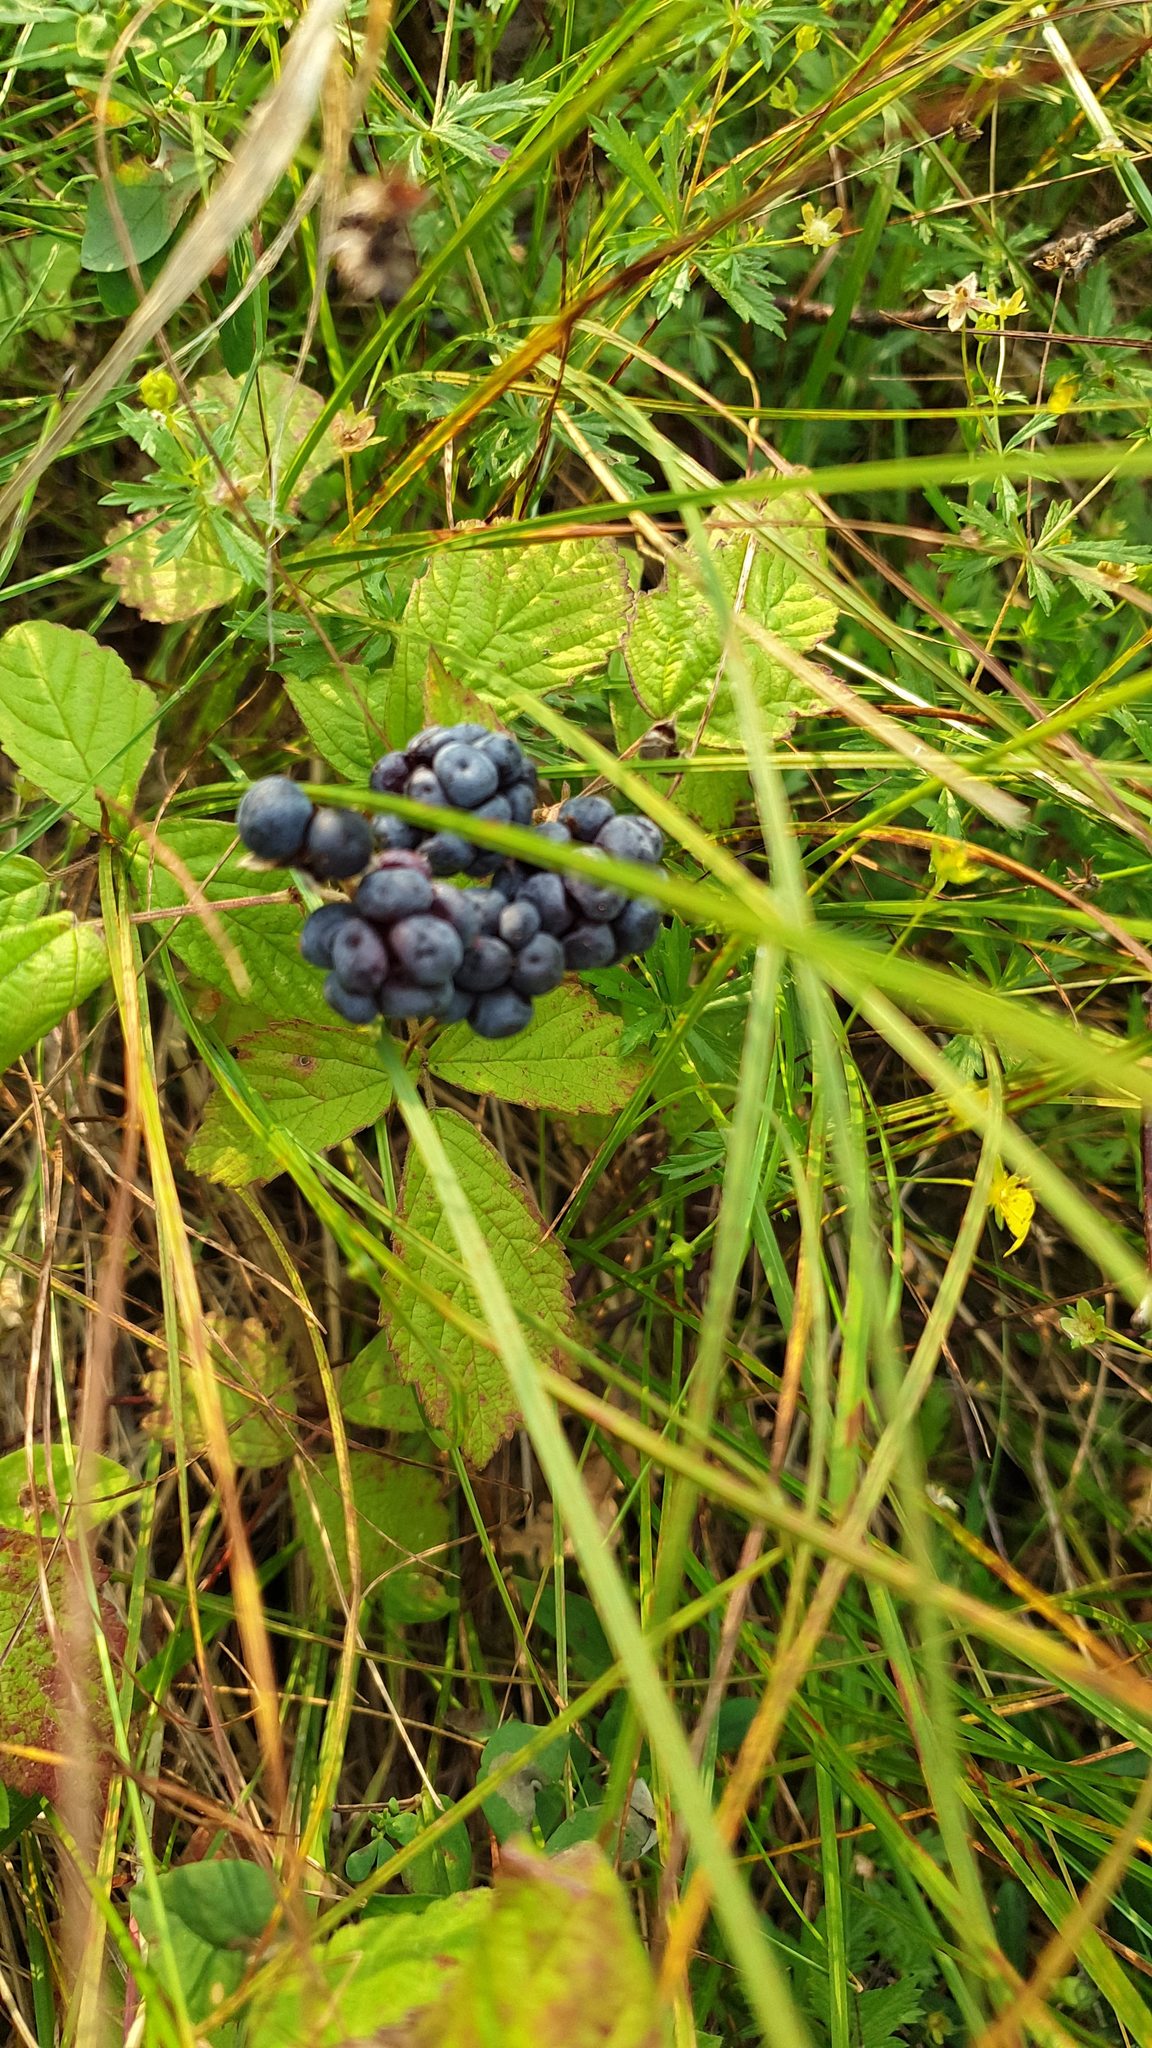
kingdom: Plantae
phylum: Tracheophyta
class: Magnoliopsida
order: Rosales
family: Rosaceae
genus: Rubus
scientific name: Rubus caesius
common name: Dewberry
